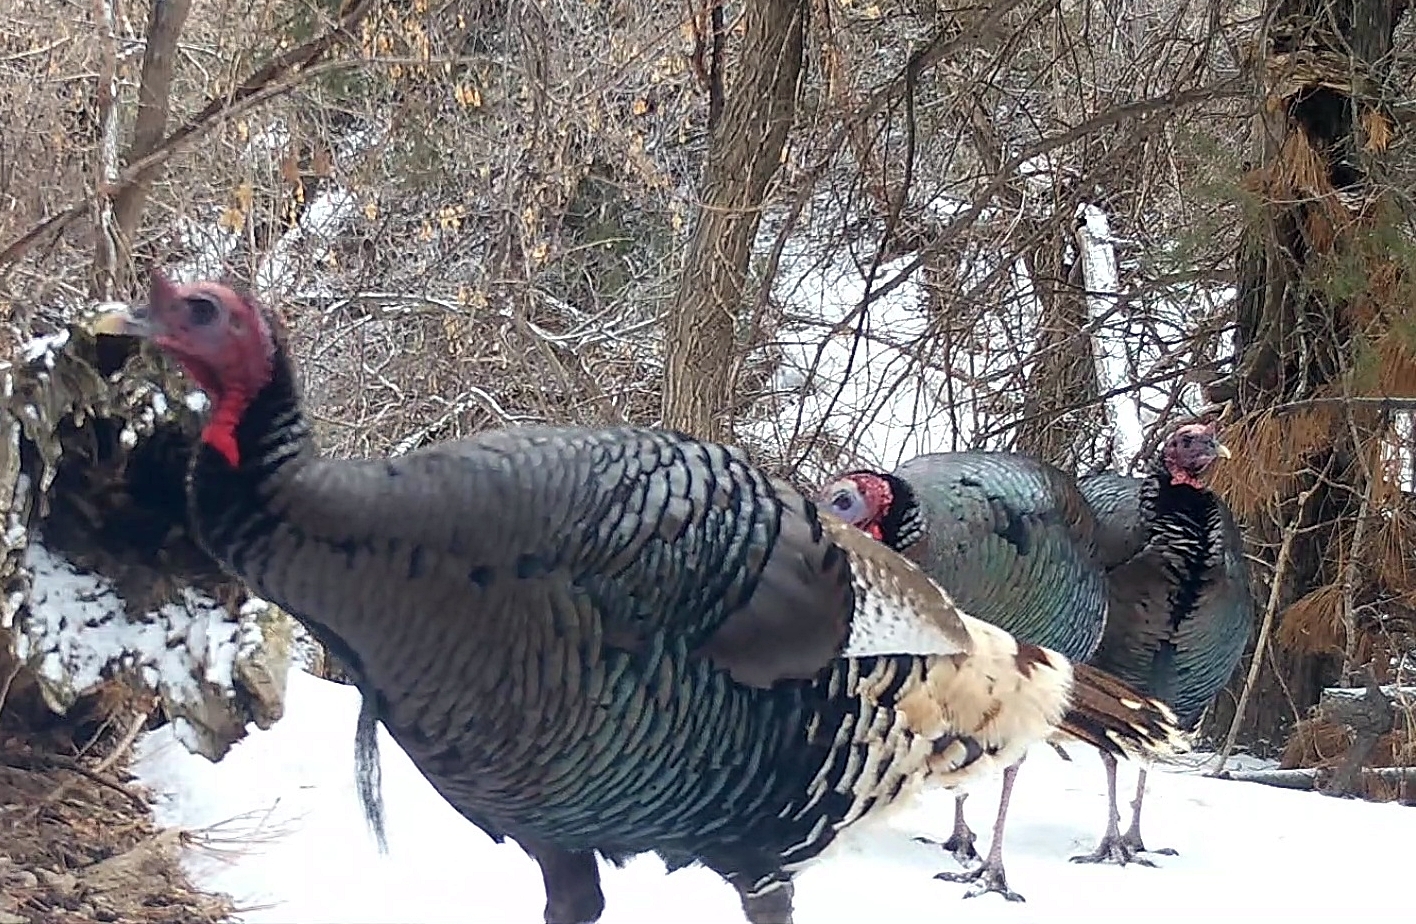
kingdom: Animalia
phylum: Chordata
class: Aves
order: Galliformes
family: Phasianidae
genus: Meleagris
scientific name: Meleagris gallopavo
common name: Wild turkey
